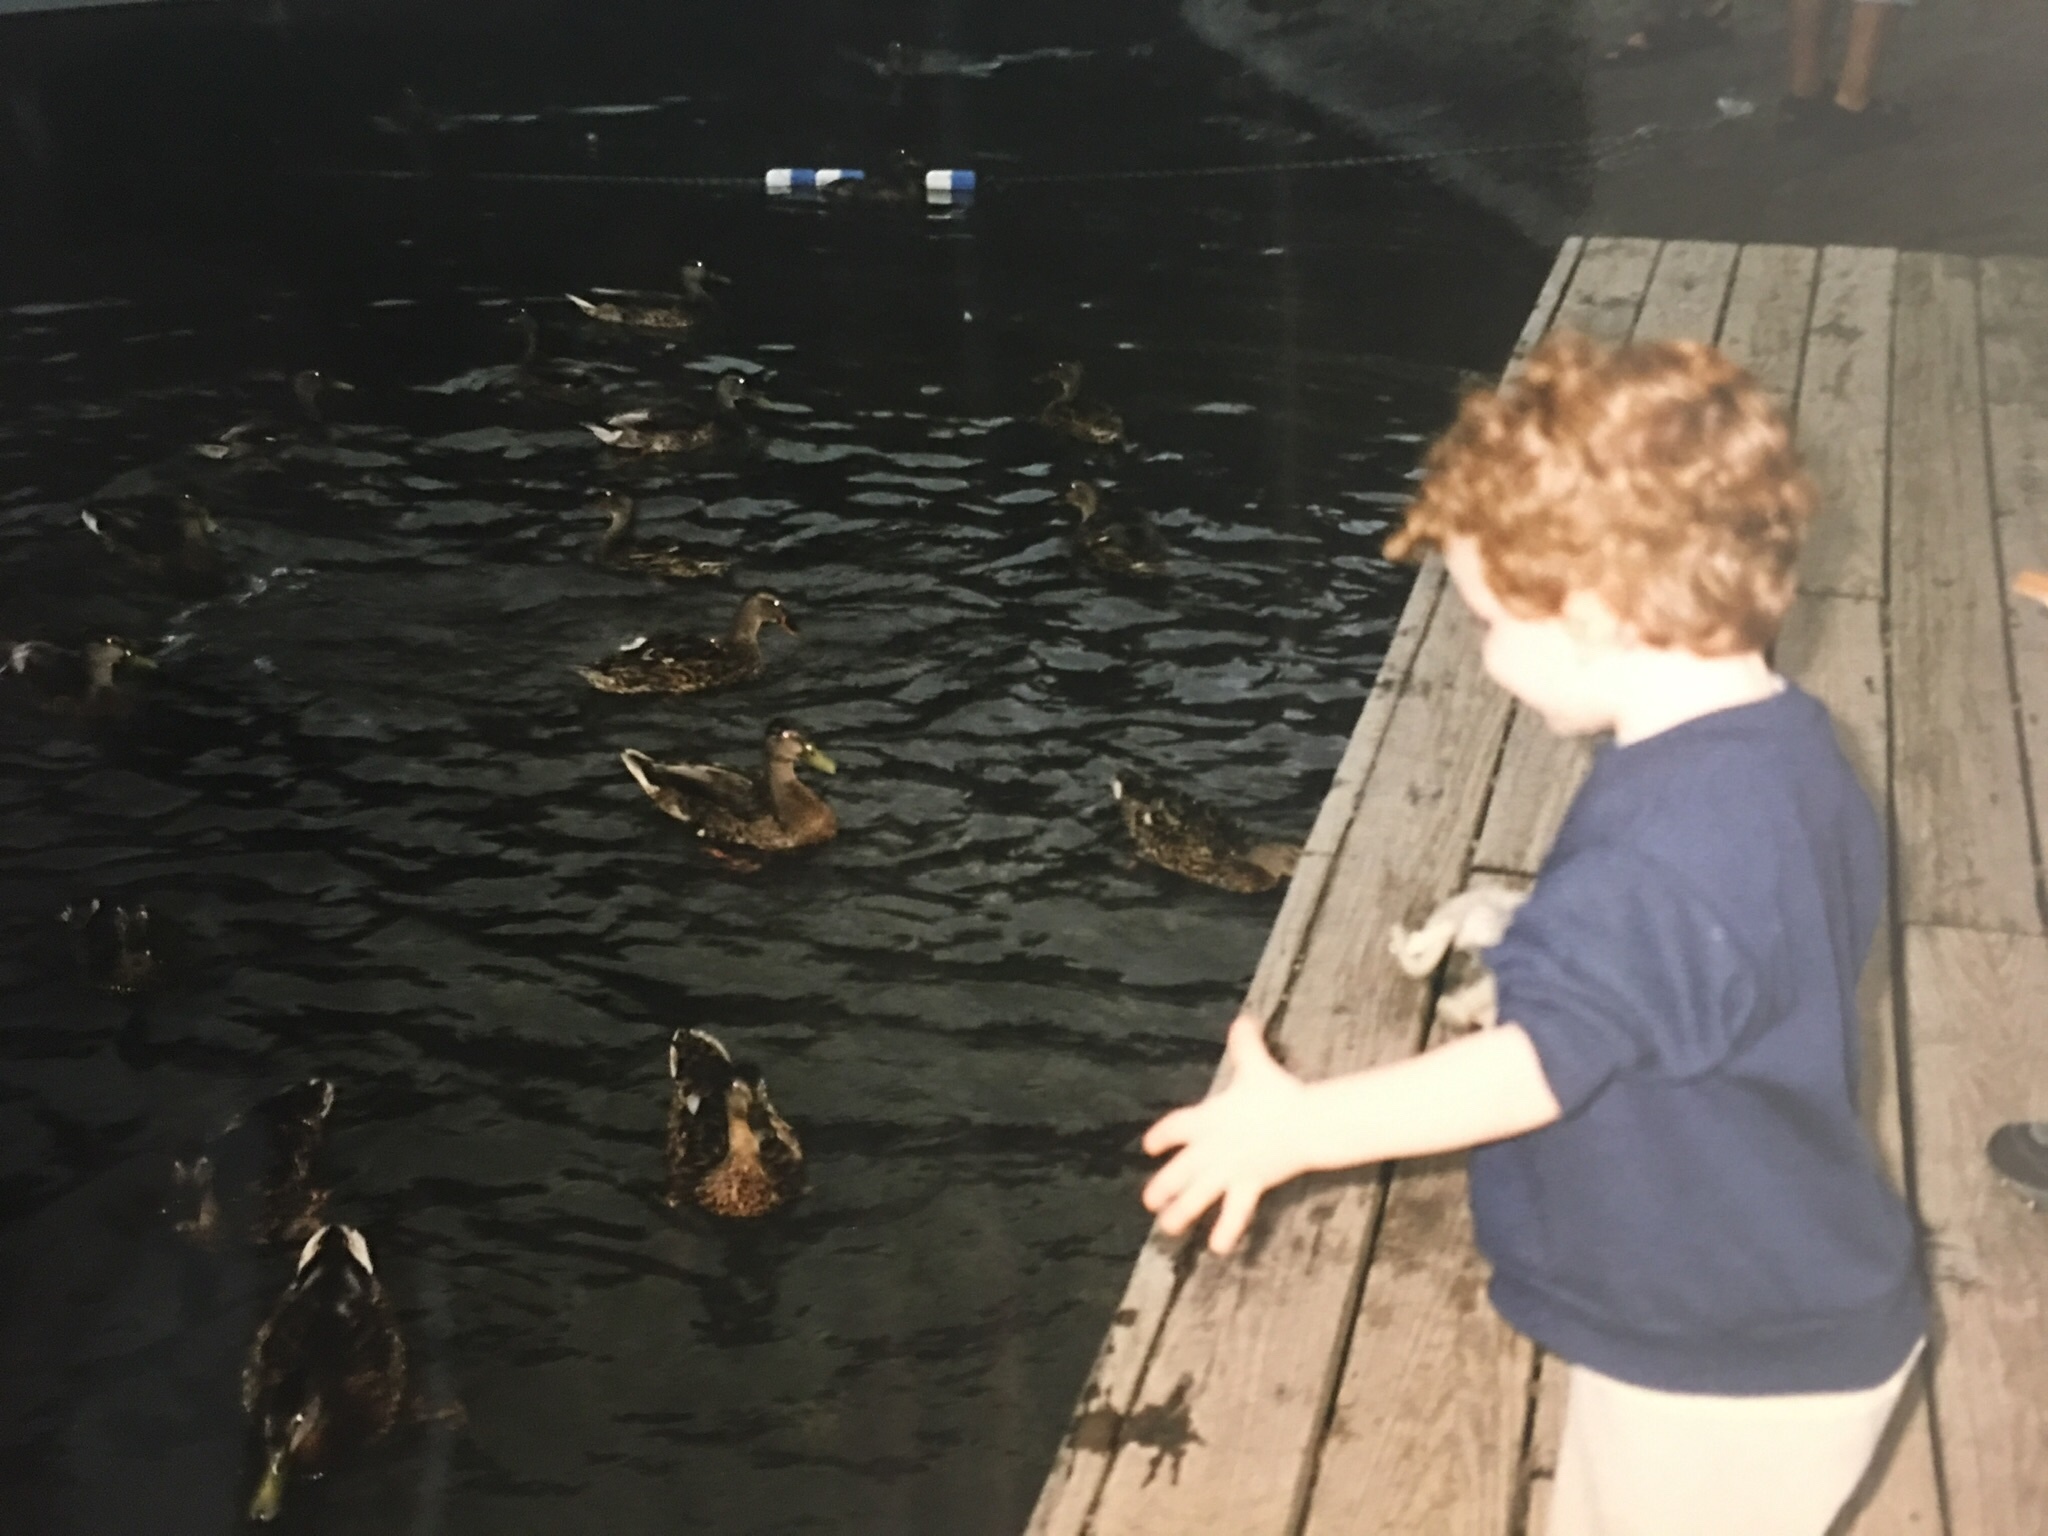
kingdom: Animalia
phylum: Chordata
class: Aves
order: Anseriformes
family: Anatidae
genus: Anas
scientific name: Anas platyrhynchos
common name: Mallard
